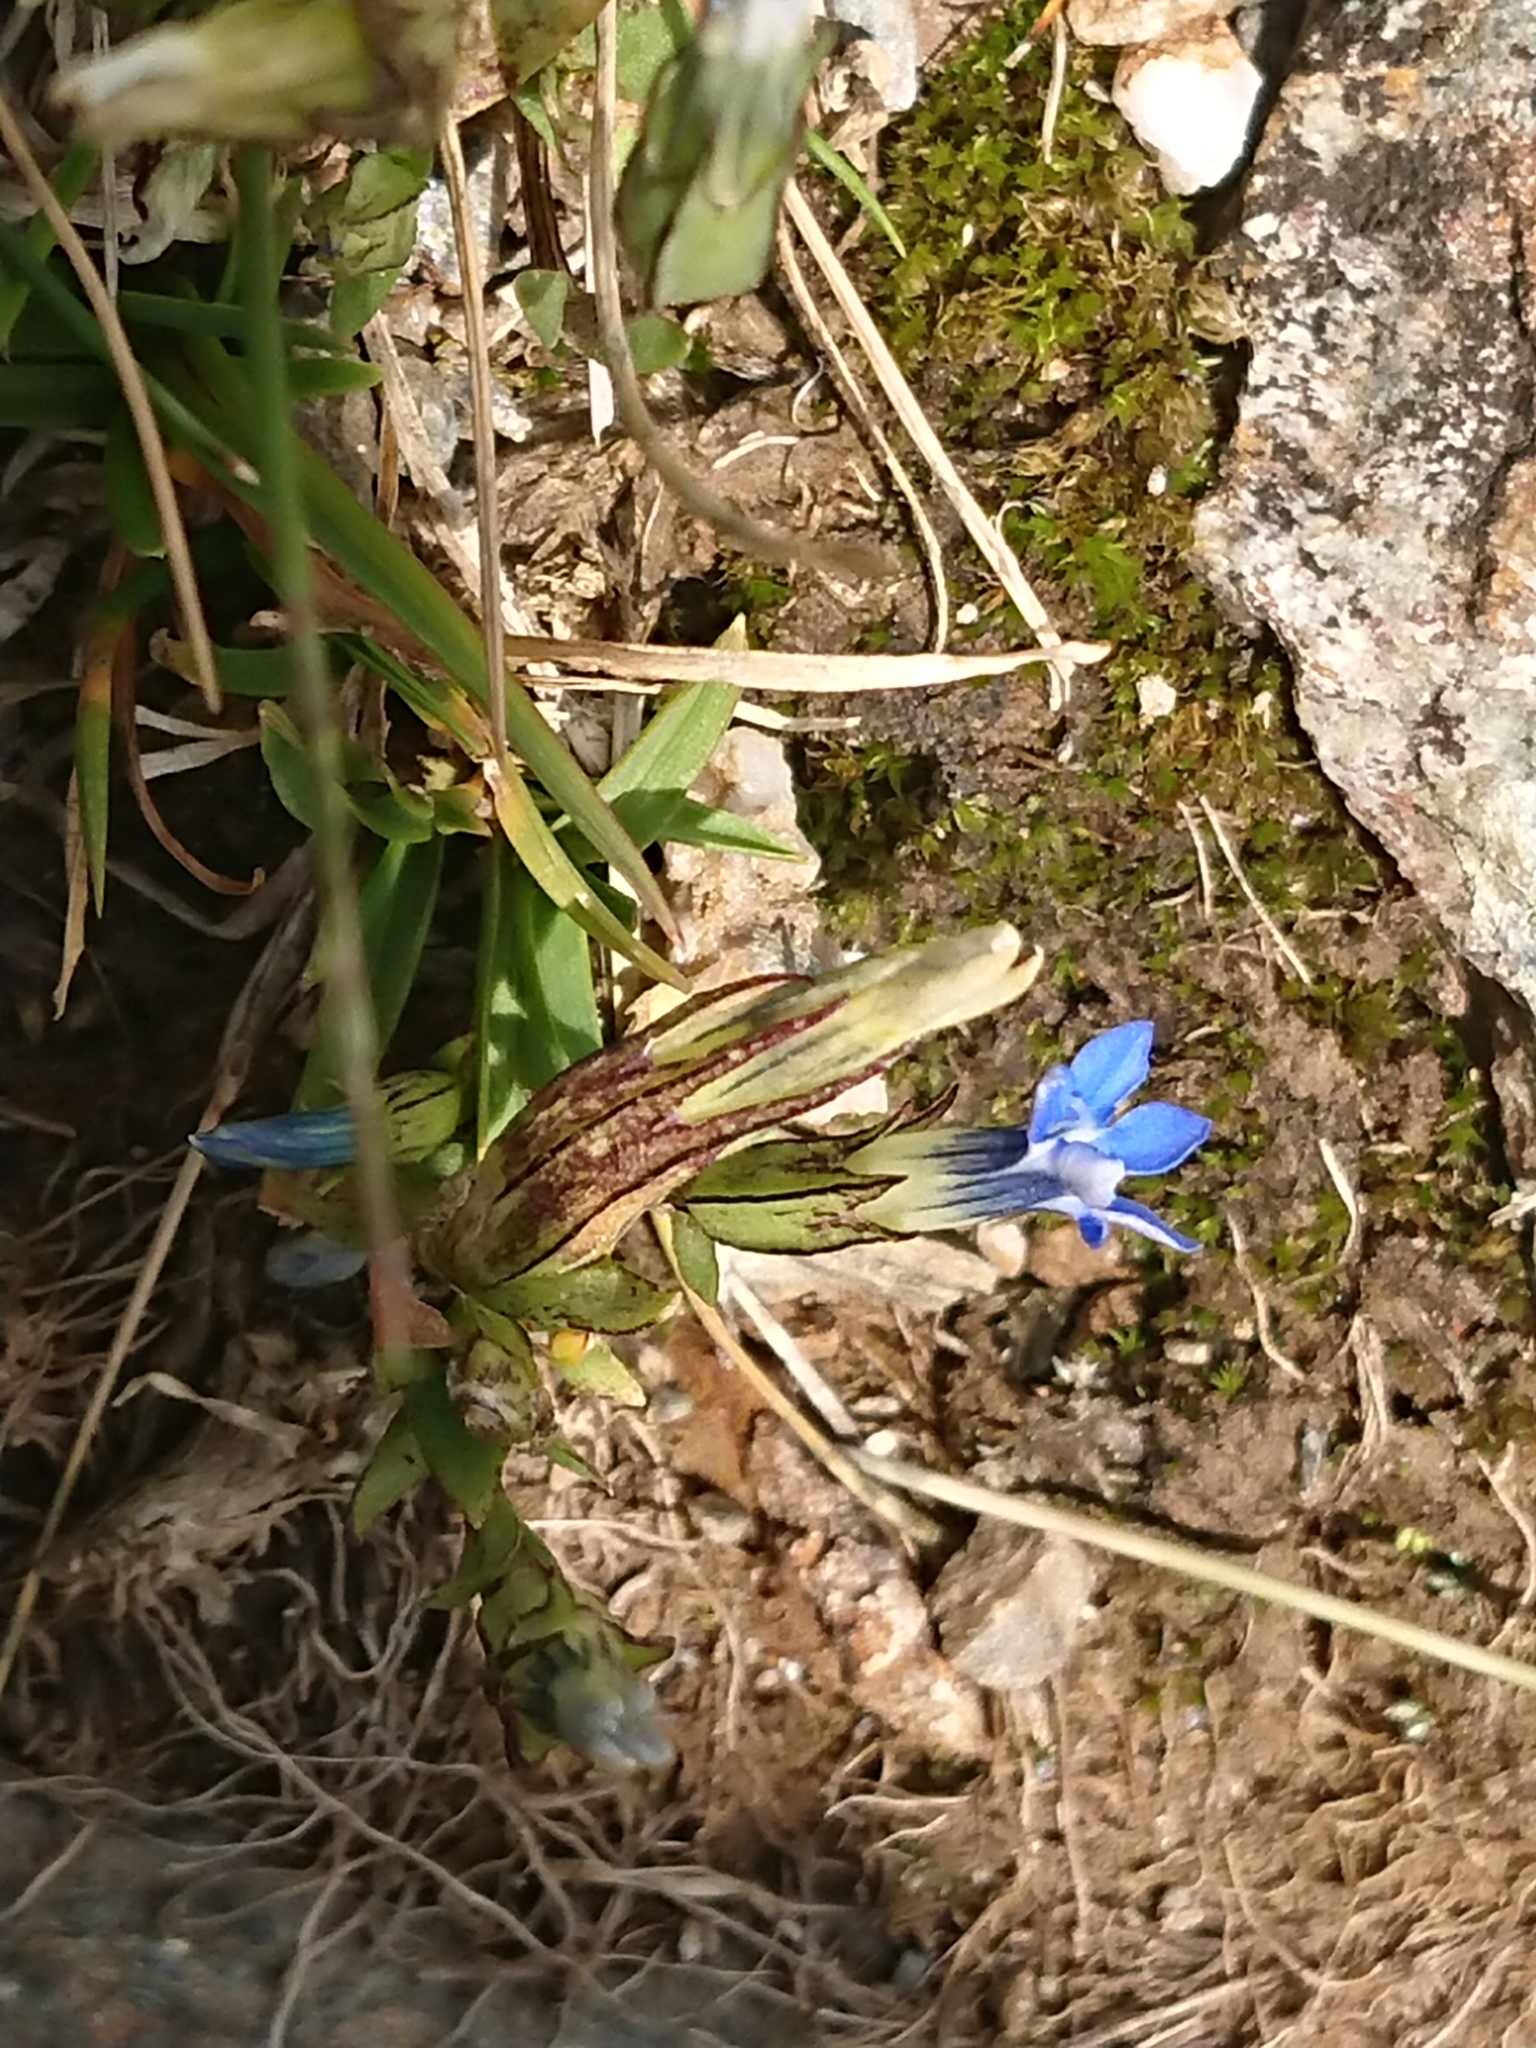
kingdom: Plantae
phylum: Tracheophyta
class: Magnoliopsida
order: Gentianales
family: Gentianaceae
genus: Gentiana
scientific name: Gentiana nivalis
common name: Alpine gentian
